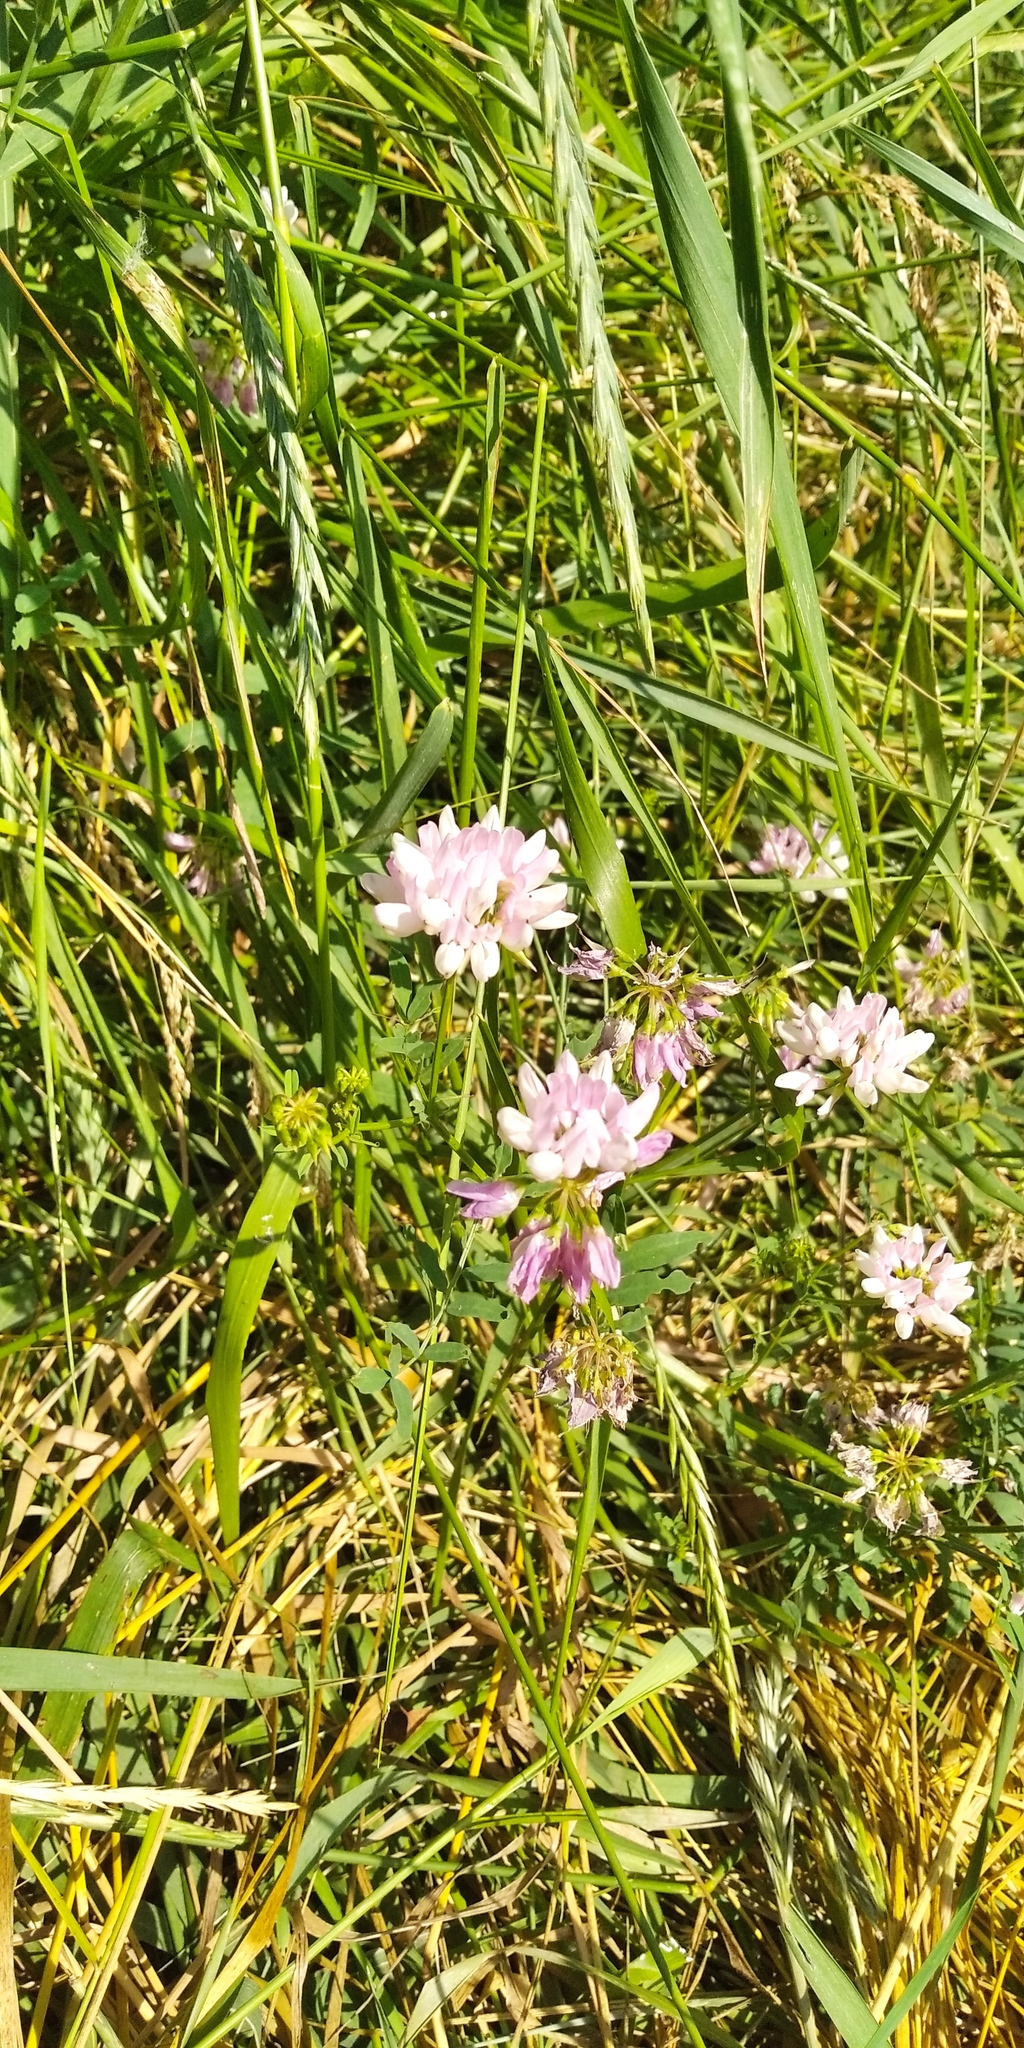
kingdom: Plantae
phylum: Tracheophyta
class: Magnoliopsida
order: Fabales
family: Fabaceae
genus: Coronilla
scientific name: Coronilla varia
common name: Crownvetch
